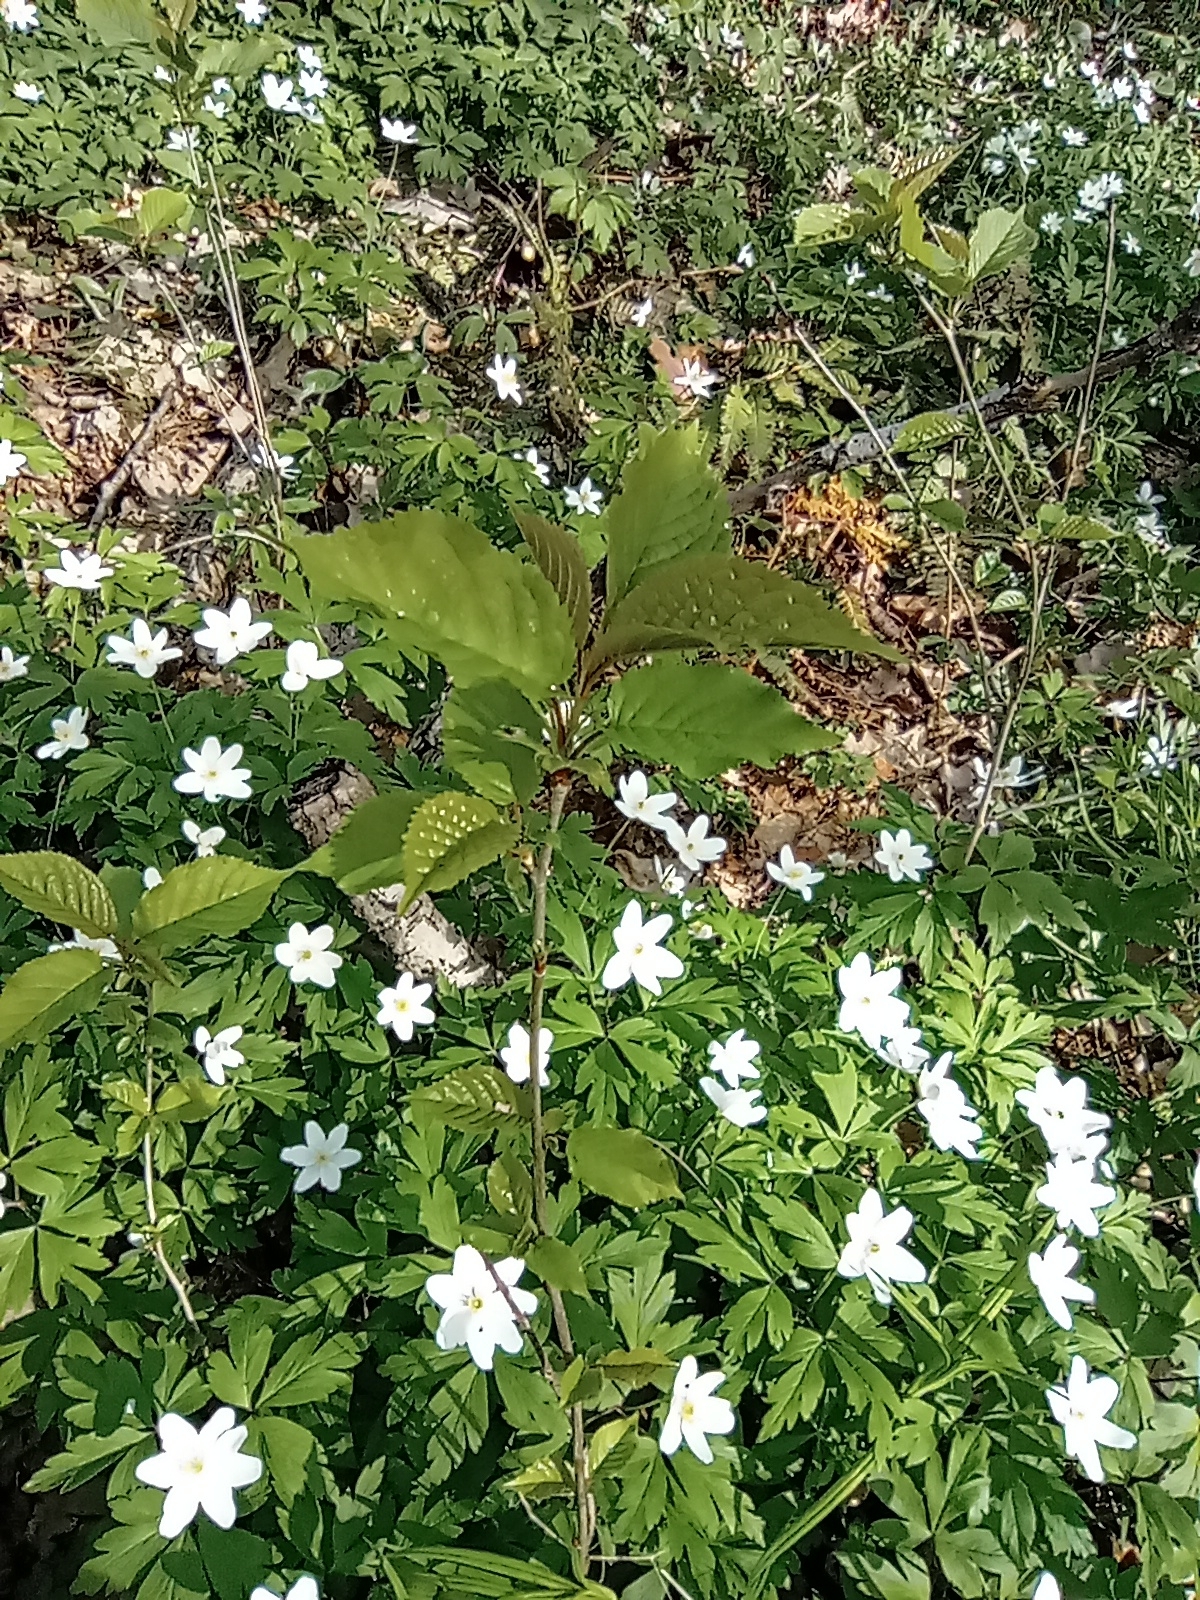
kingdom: Plantae
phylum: Tracheophyta
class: Magnoliopsida
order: Rosales
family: Rosaceae
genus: Prunus
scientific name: Prunus avium
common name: Sweet cherry
